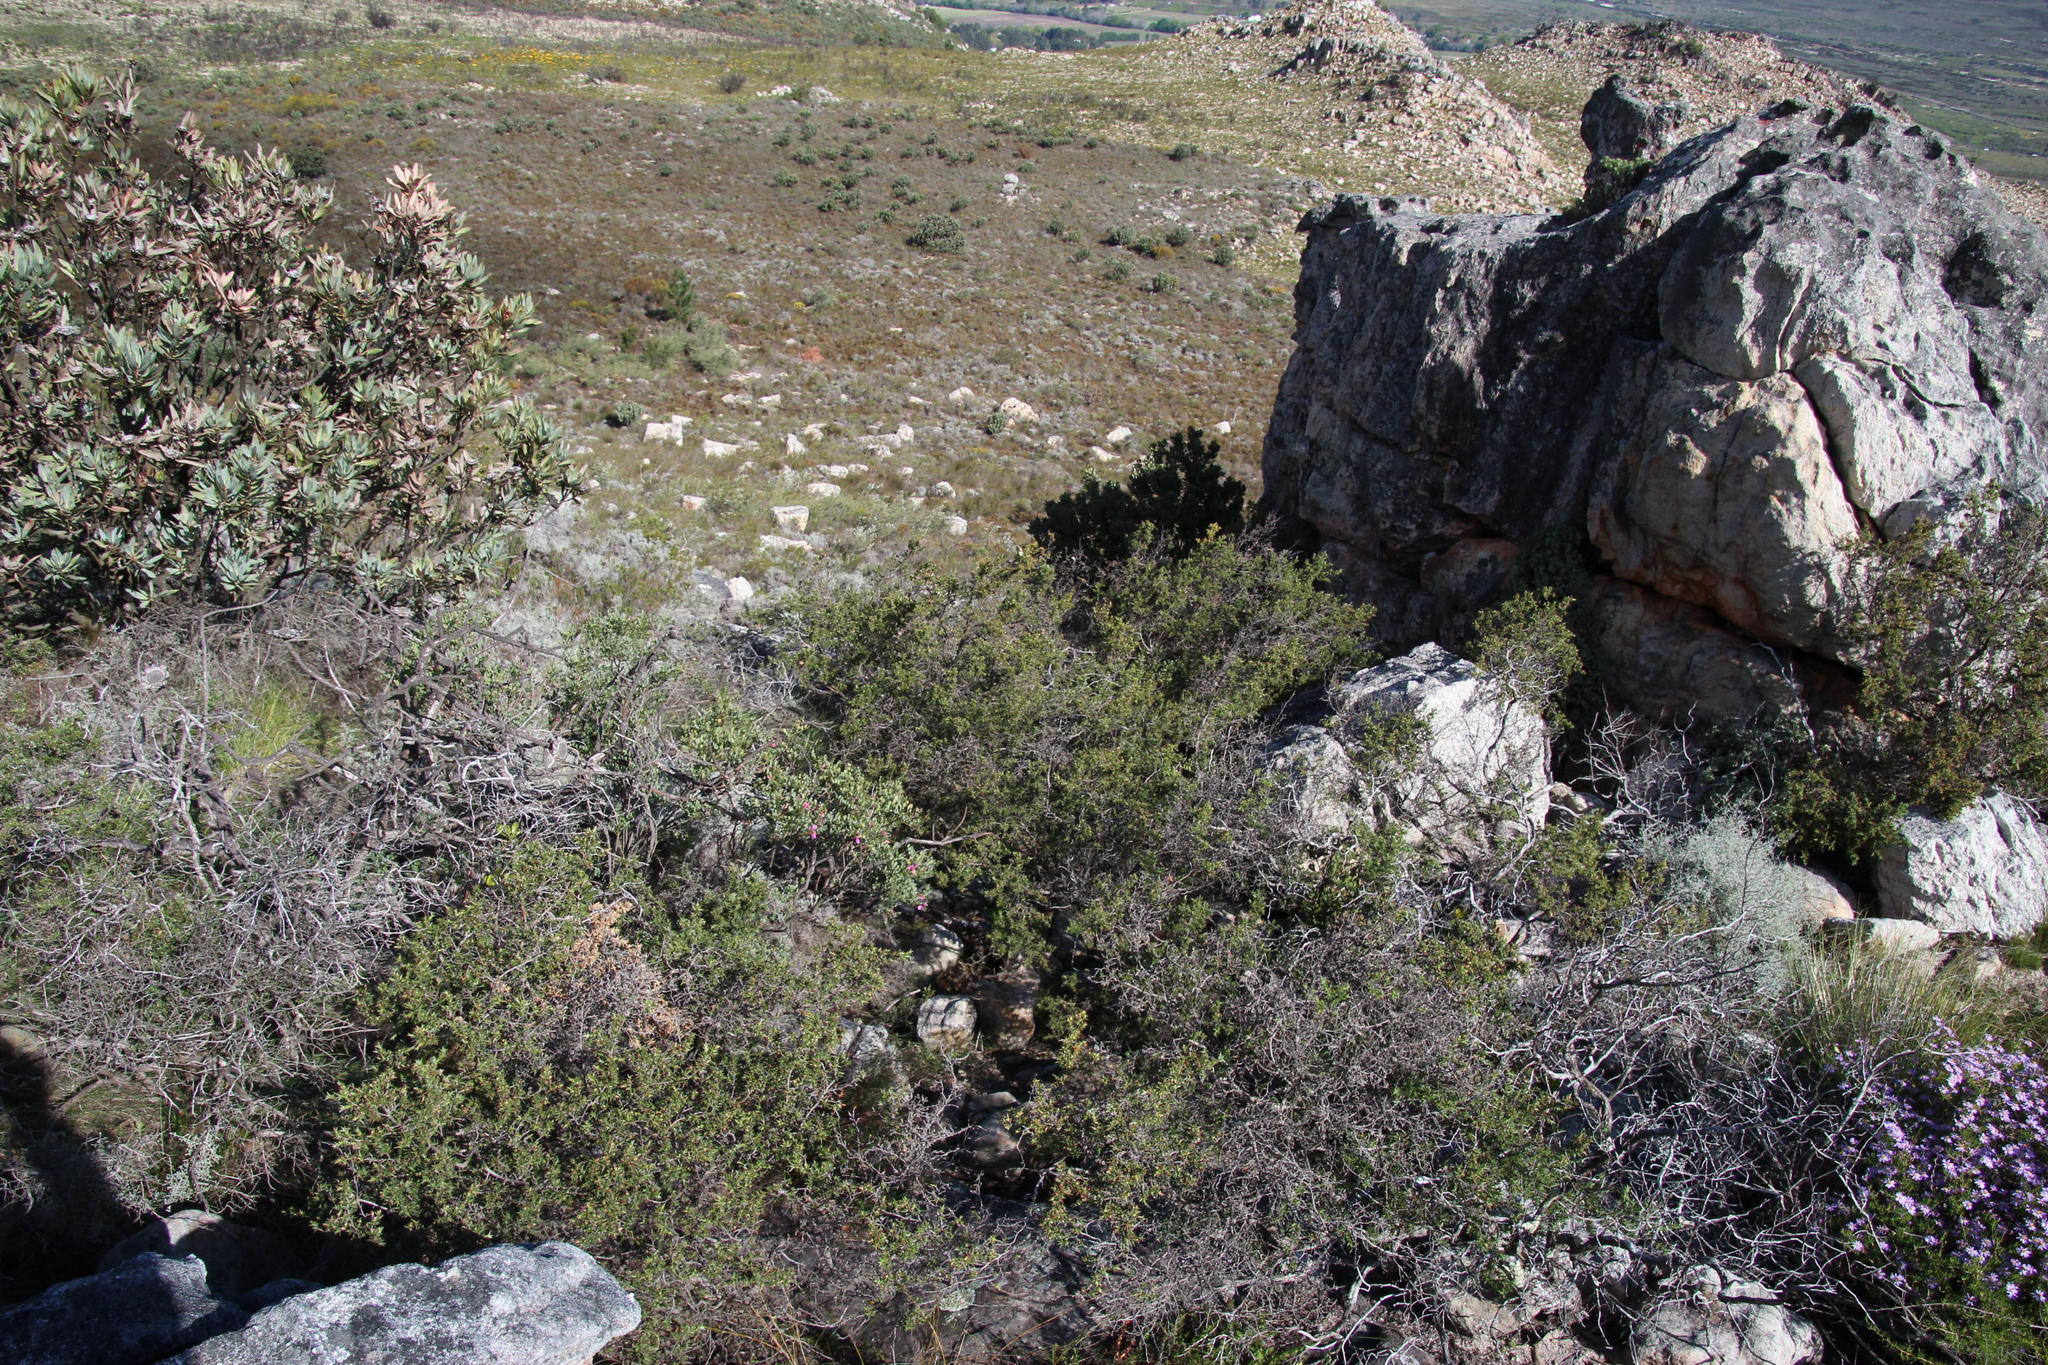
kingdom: Plantae
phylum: Tracheophyta
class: Magnoliopsida
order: Myrtales
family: Myrtaceae
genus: Leptospermum
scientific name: Leptospermum laevigatum
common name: Australian teatree
